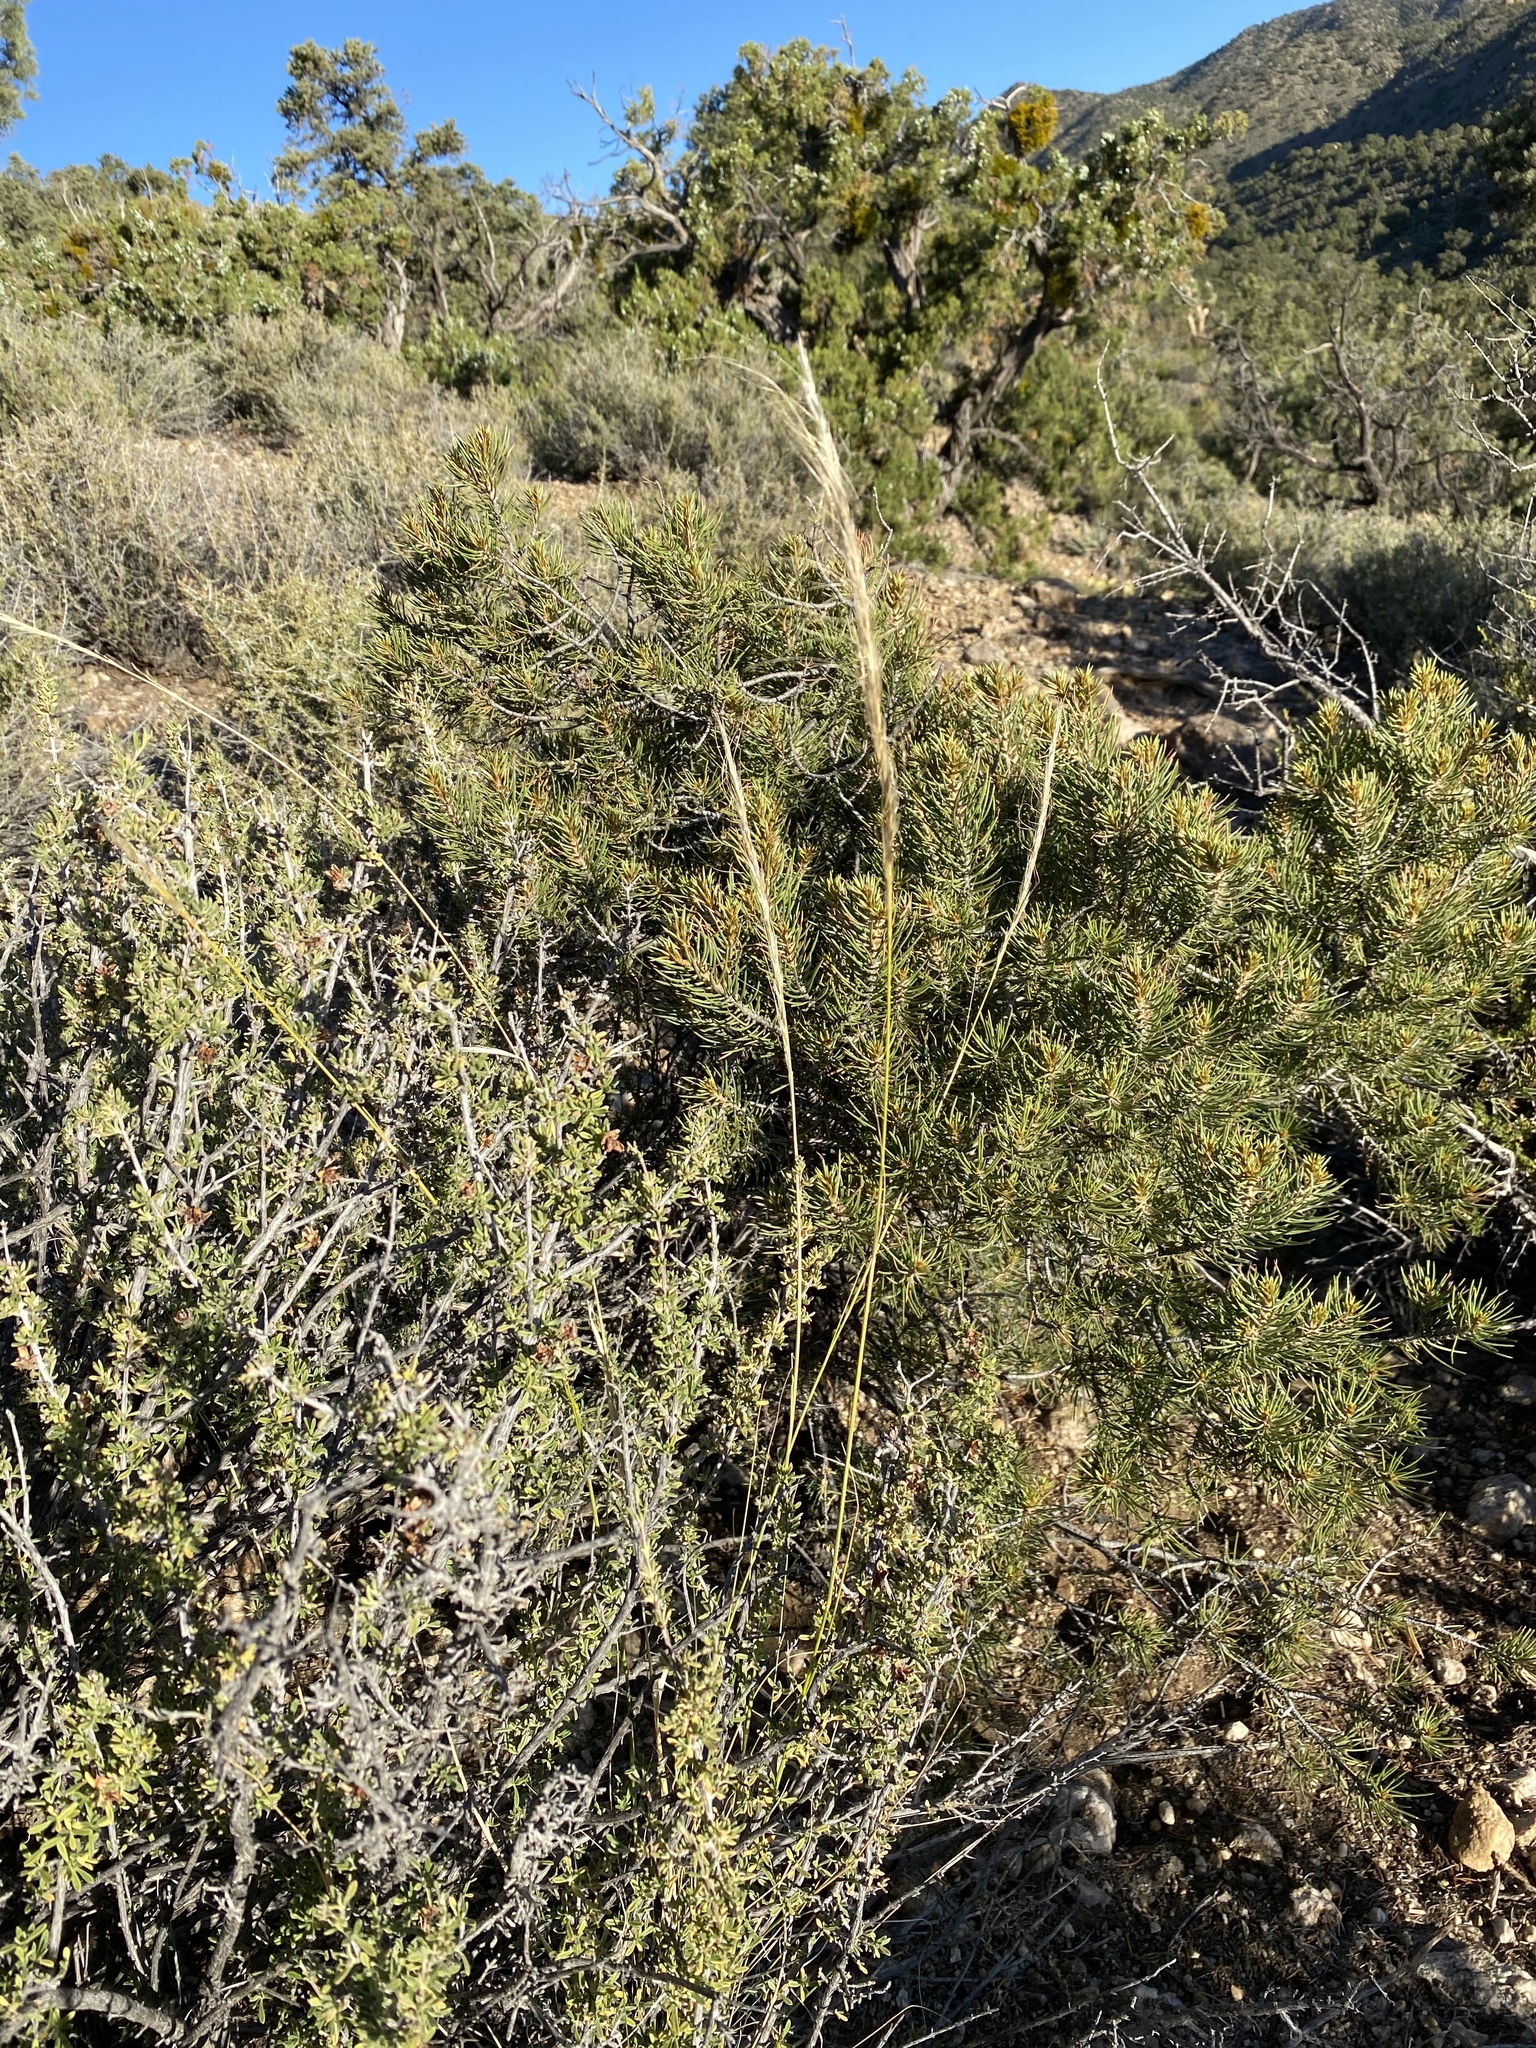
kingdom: Plantae
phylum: Tracheophyta
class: Liliopsida
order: Poales
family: Poaceae
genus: Eriocoma
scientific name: Eriocoma arida
